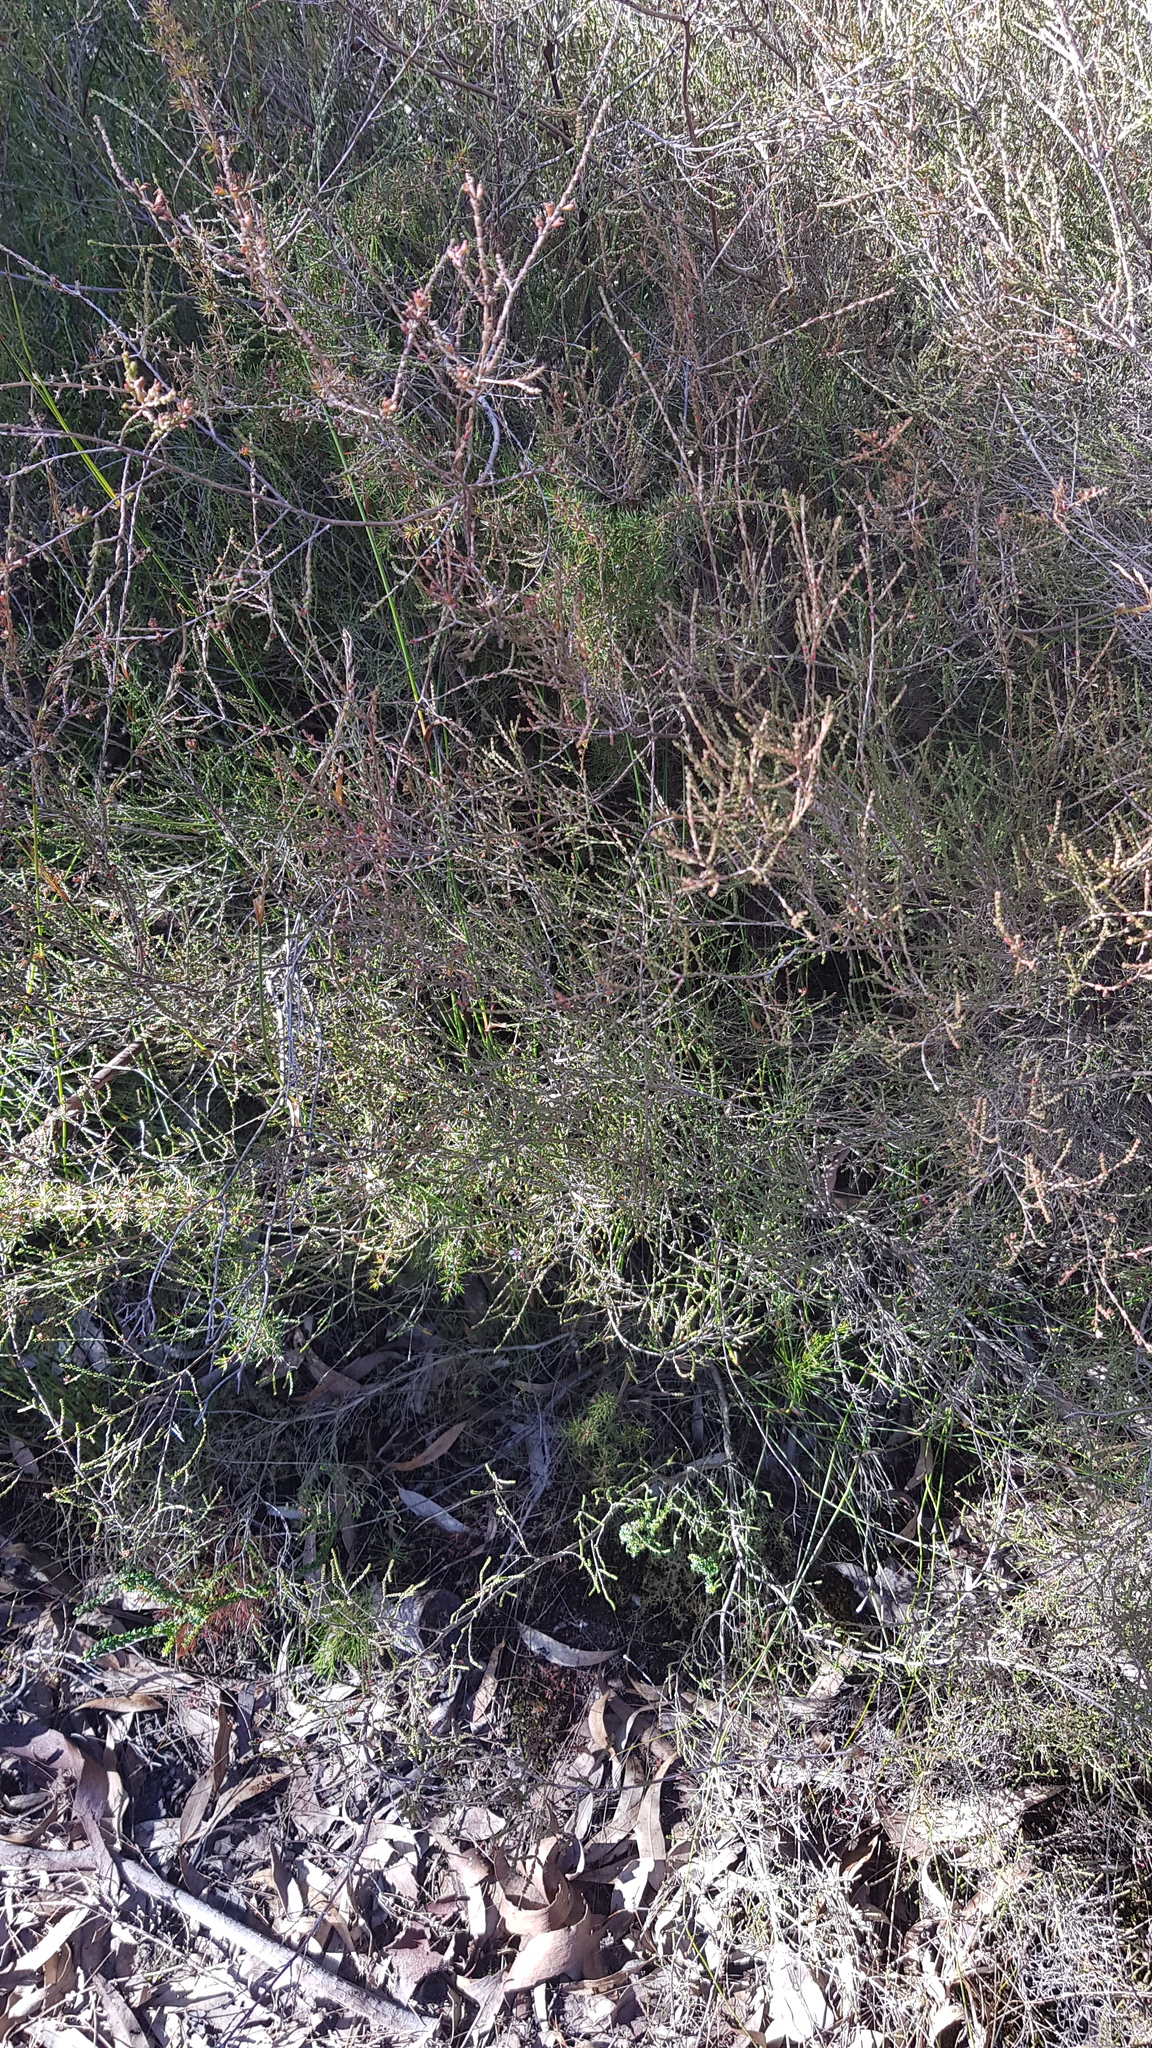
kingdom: Plantae
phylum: Tracheophyta
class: Magnoliopsida
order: Myrtales
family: Myrtaceae
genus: Baeckea
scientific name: Baeckea brevifolia
